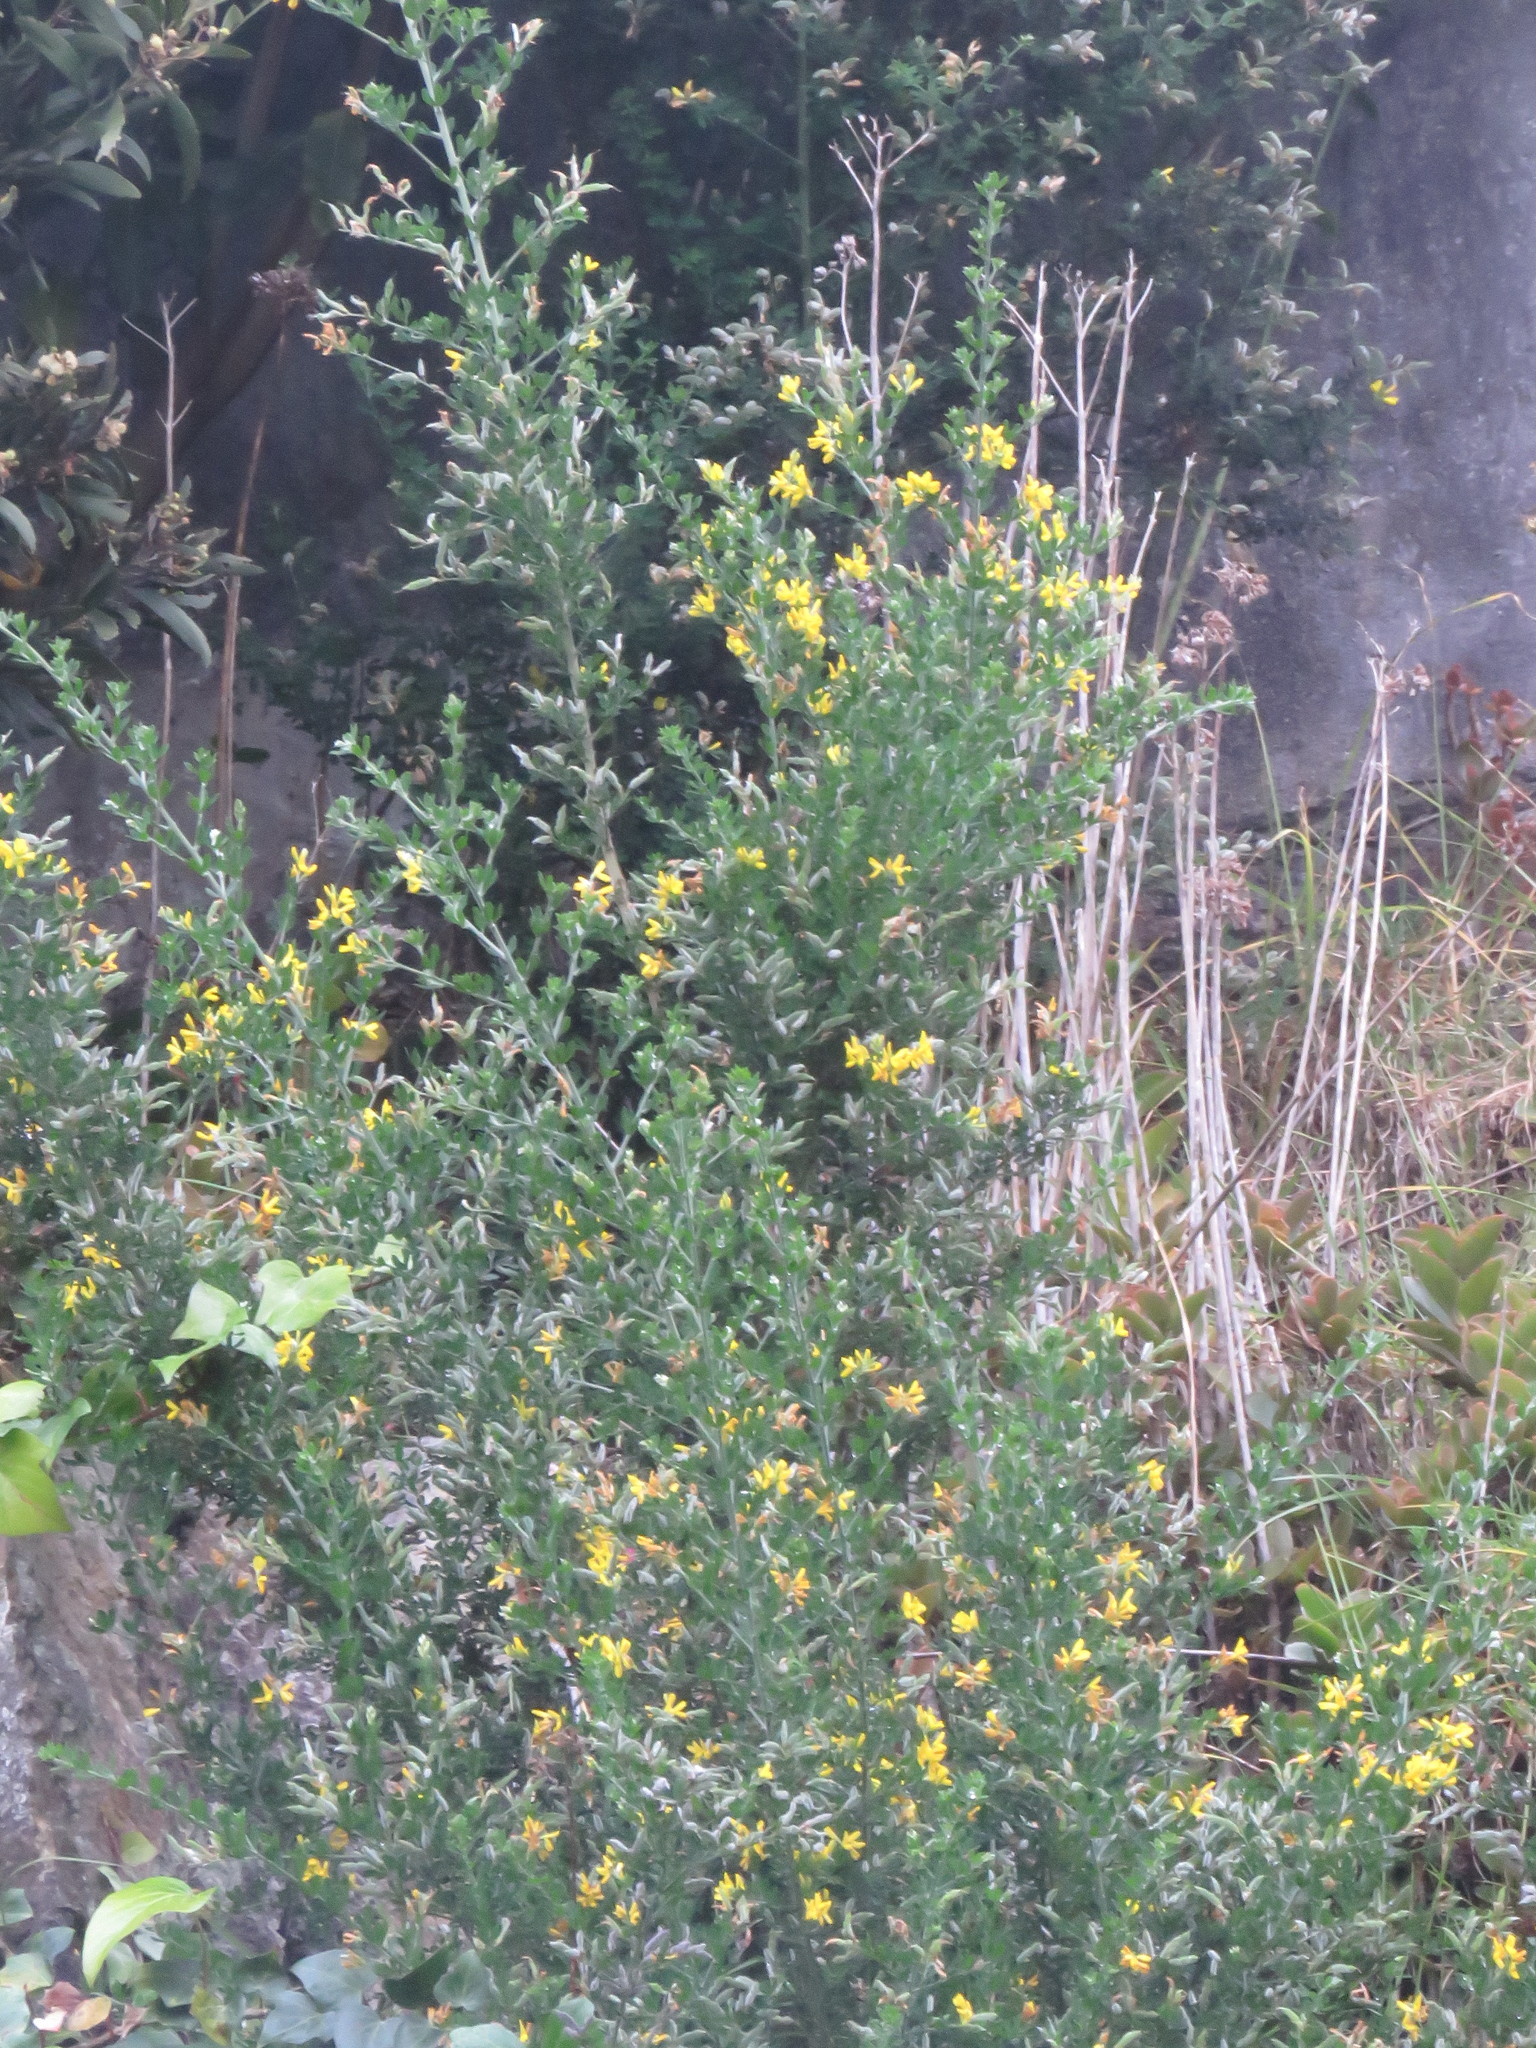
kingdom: Plantae
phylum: Tracheophyta
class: Magnoliopsida
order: Fabales
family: Fabaceae
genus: Genista
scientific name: Genista monspessulana
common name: Montpellier broom
